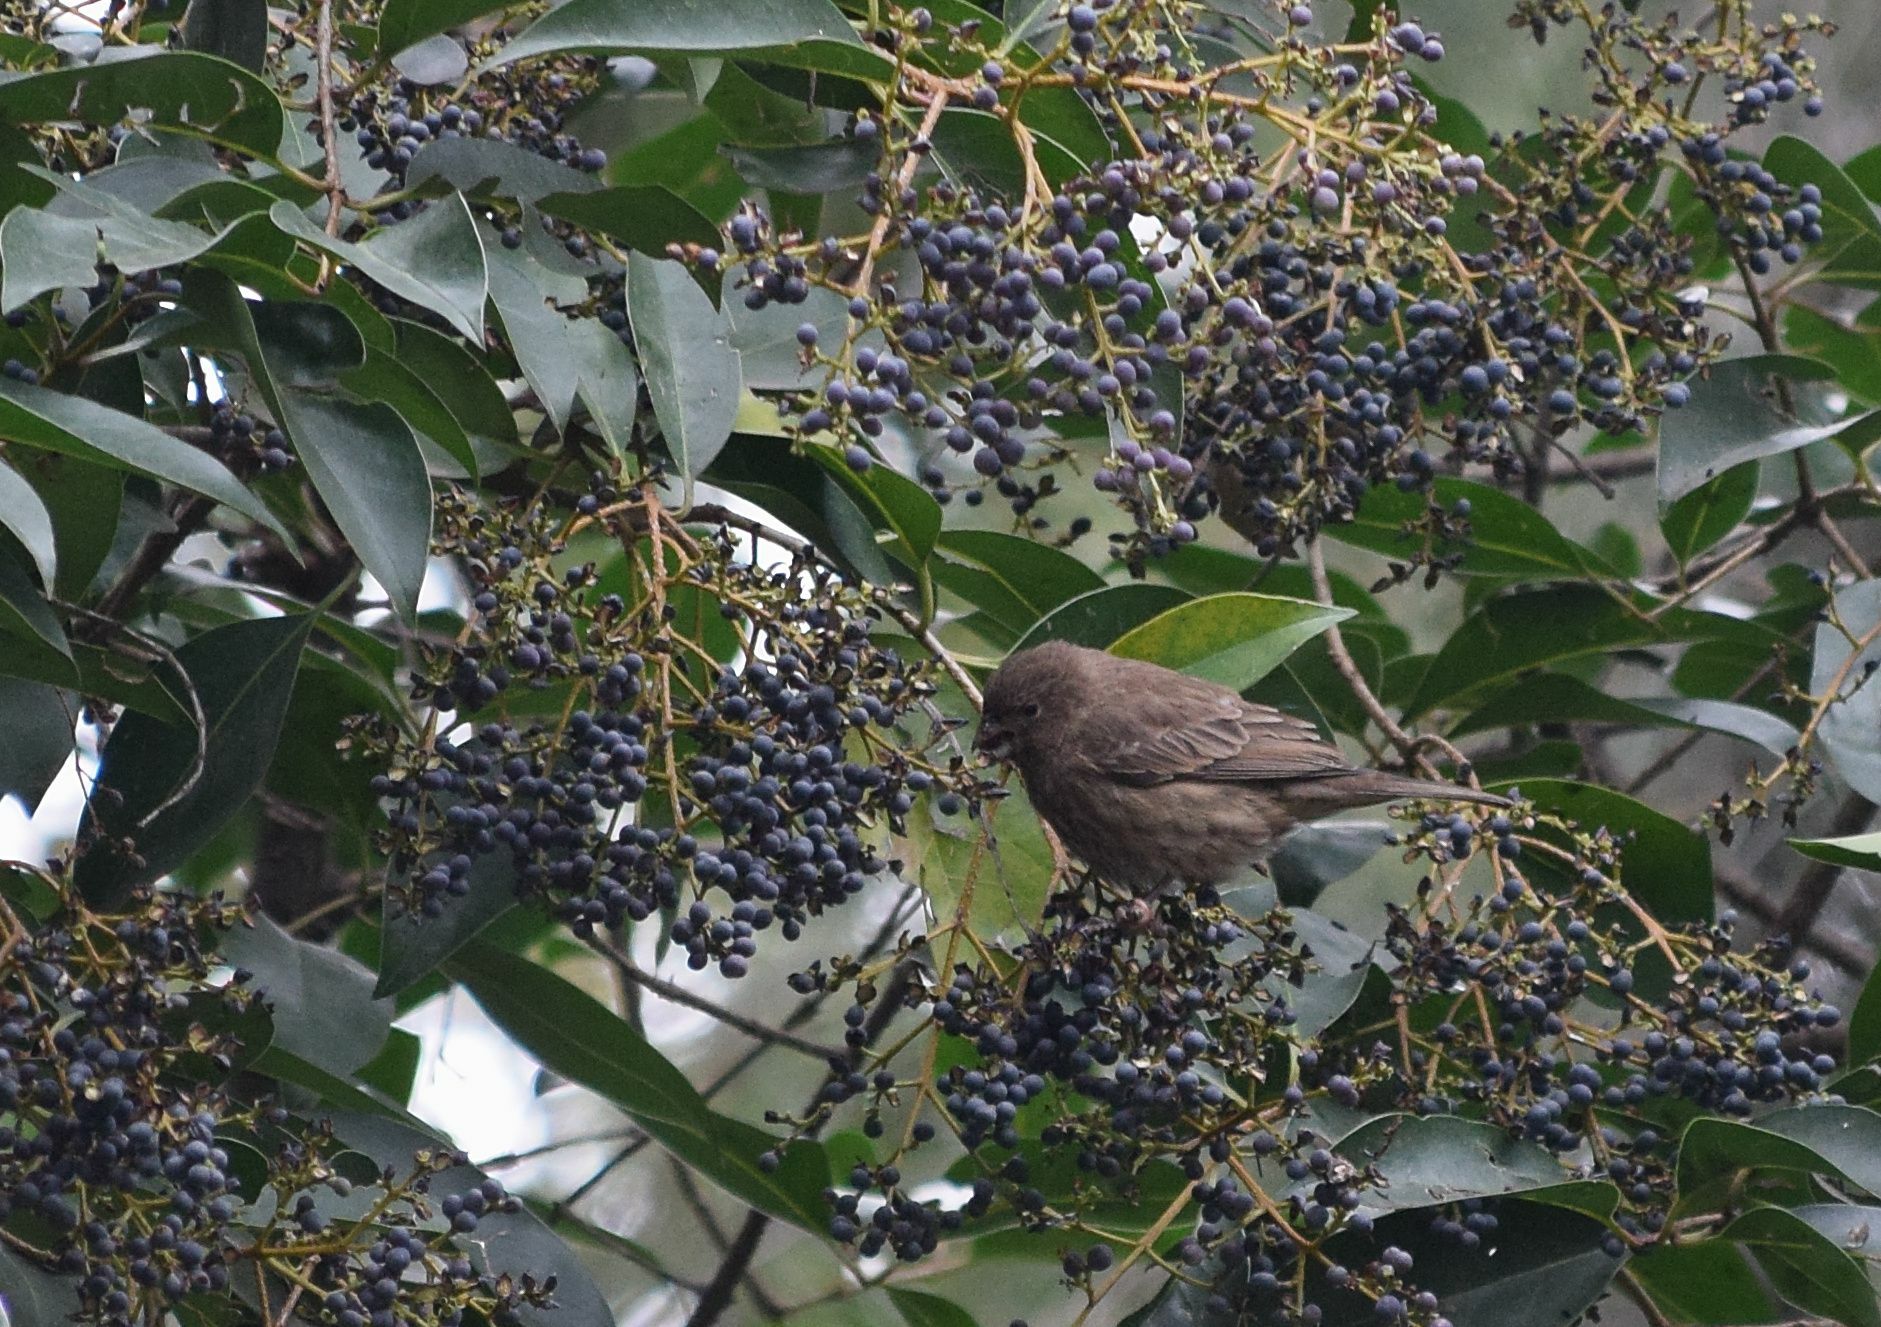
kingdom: Animalia
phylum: Chordata
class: Aves
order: Passeriformes
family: Fringillidae
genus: Haemorhous
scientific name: Haemorhous mexicanus
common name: House finch
